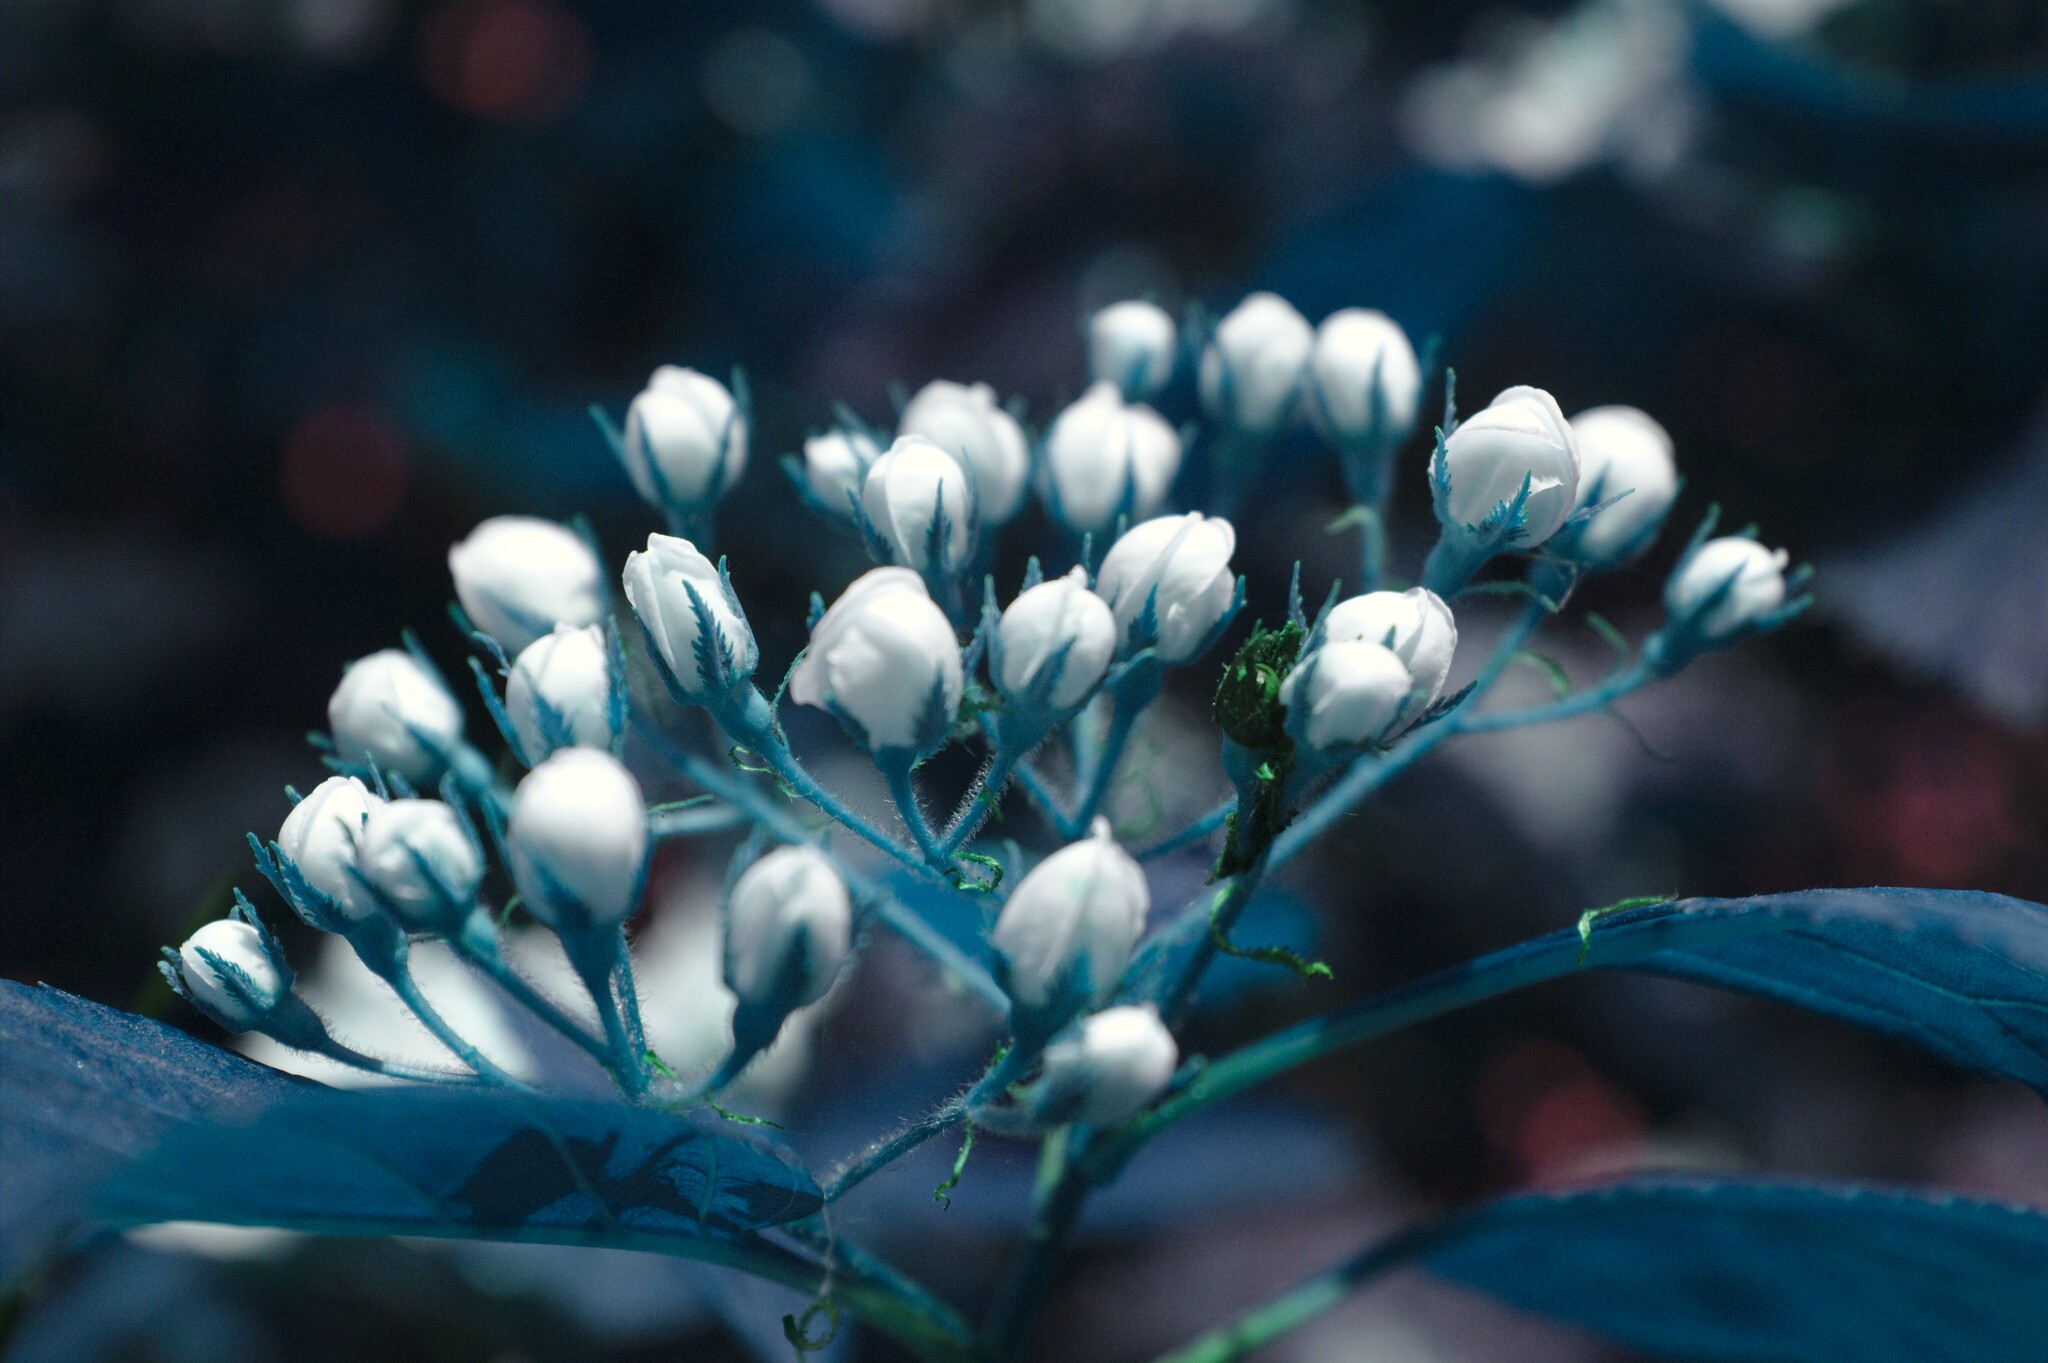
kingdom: Plantae
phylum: Tracheophyta
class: Magnoliopsida
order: Rosales
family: Rosaceae
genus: Crataegus
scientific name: Crataegus macracantha
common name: Large-thorn hawthorn
